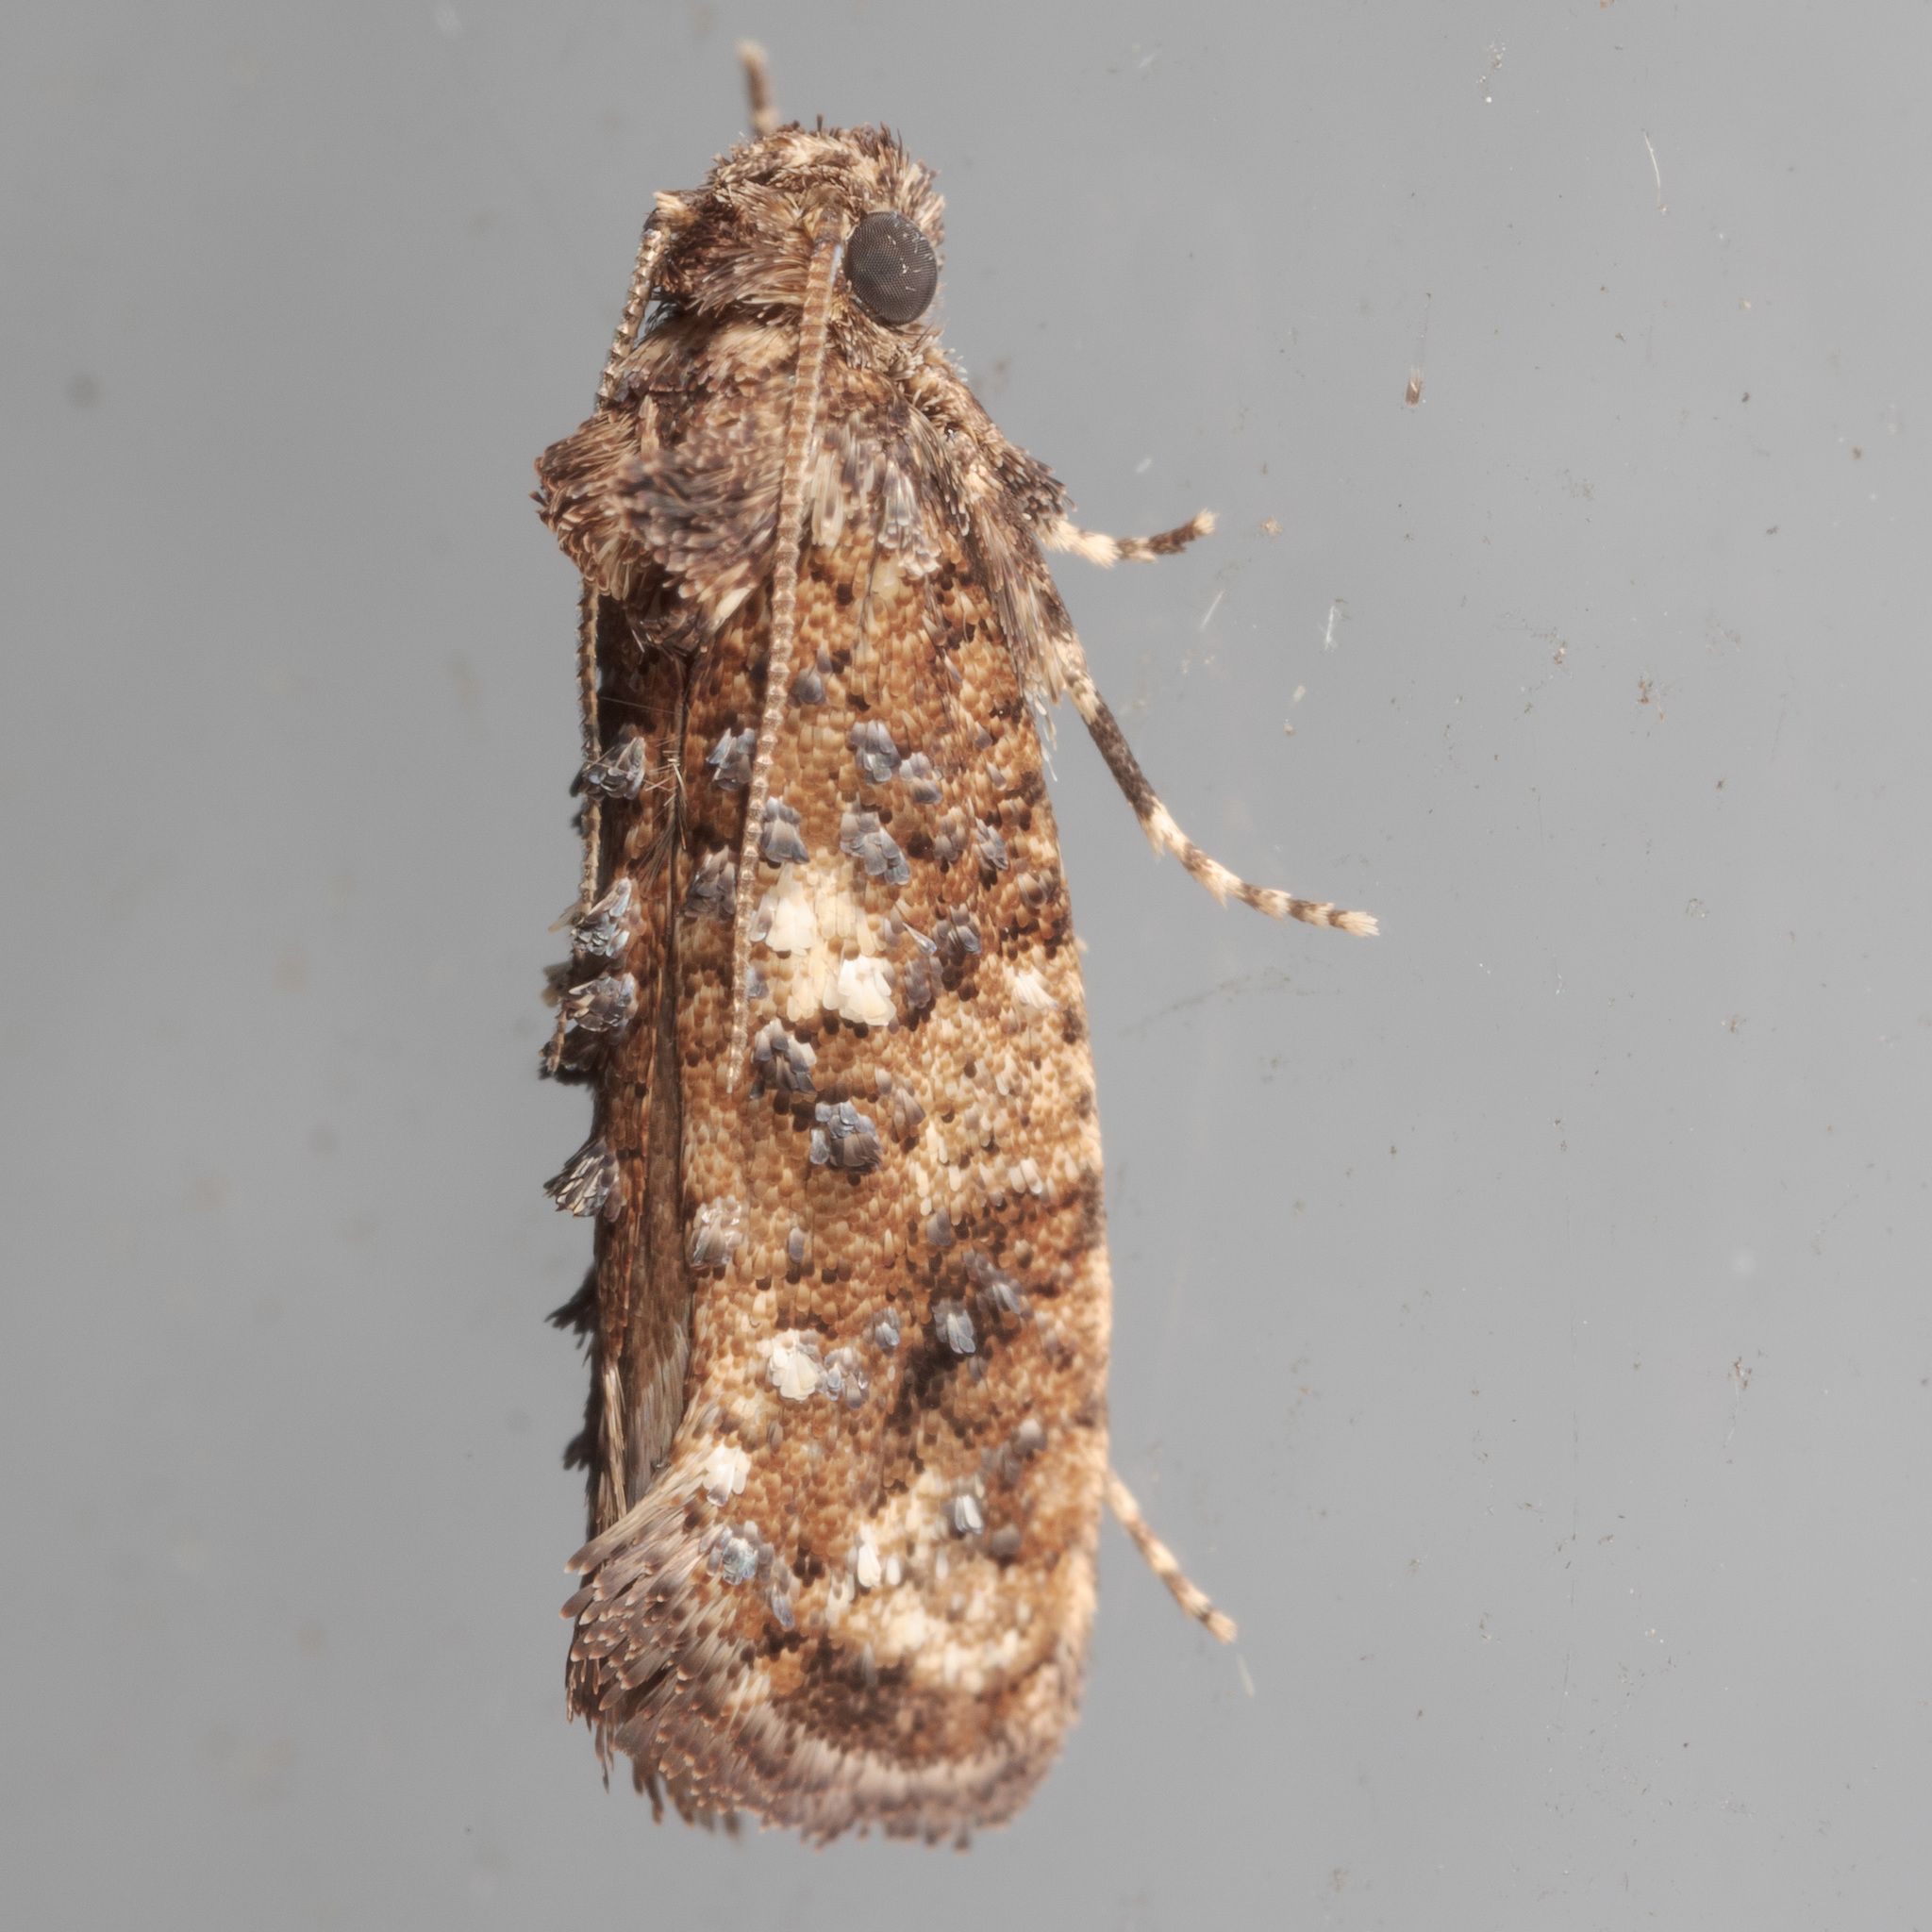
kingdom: Animalia
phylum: Arthropoda
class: Insecta
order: Lepidoptera
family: Tineidae
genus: Acrolophus
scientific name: Acrolophus cressoni
